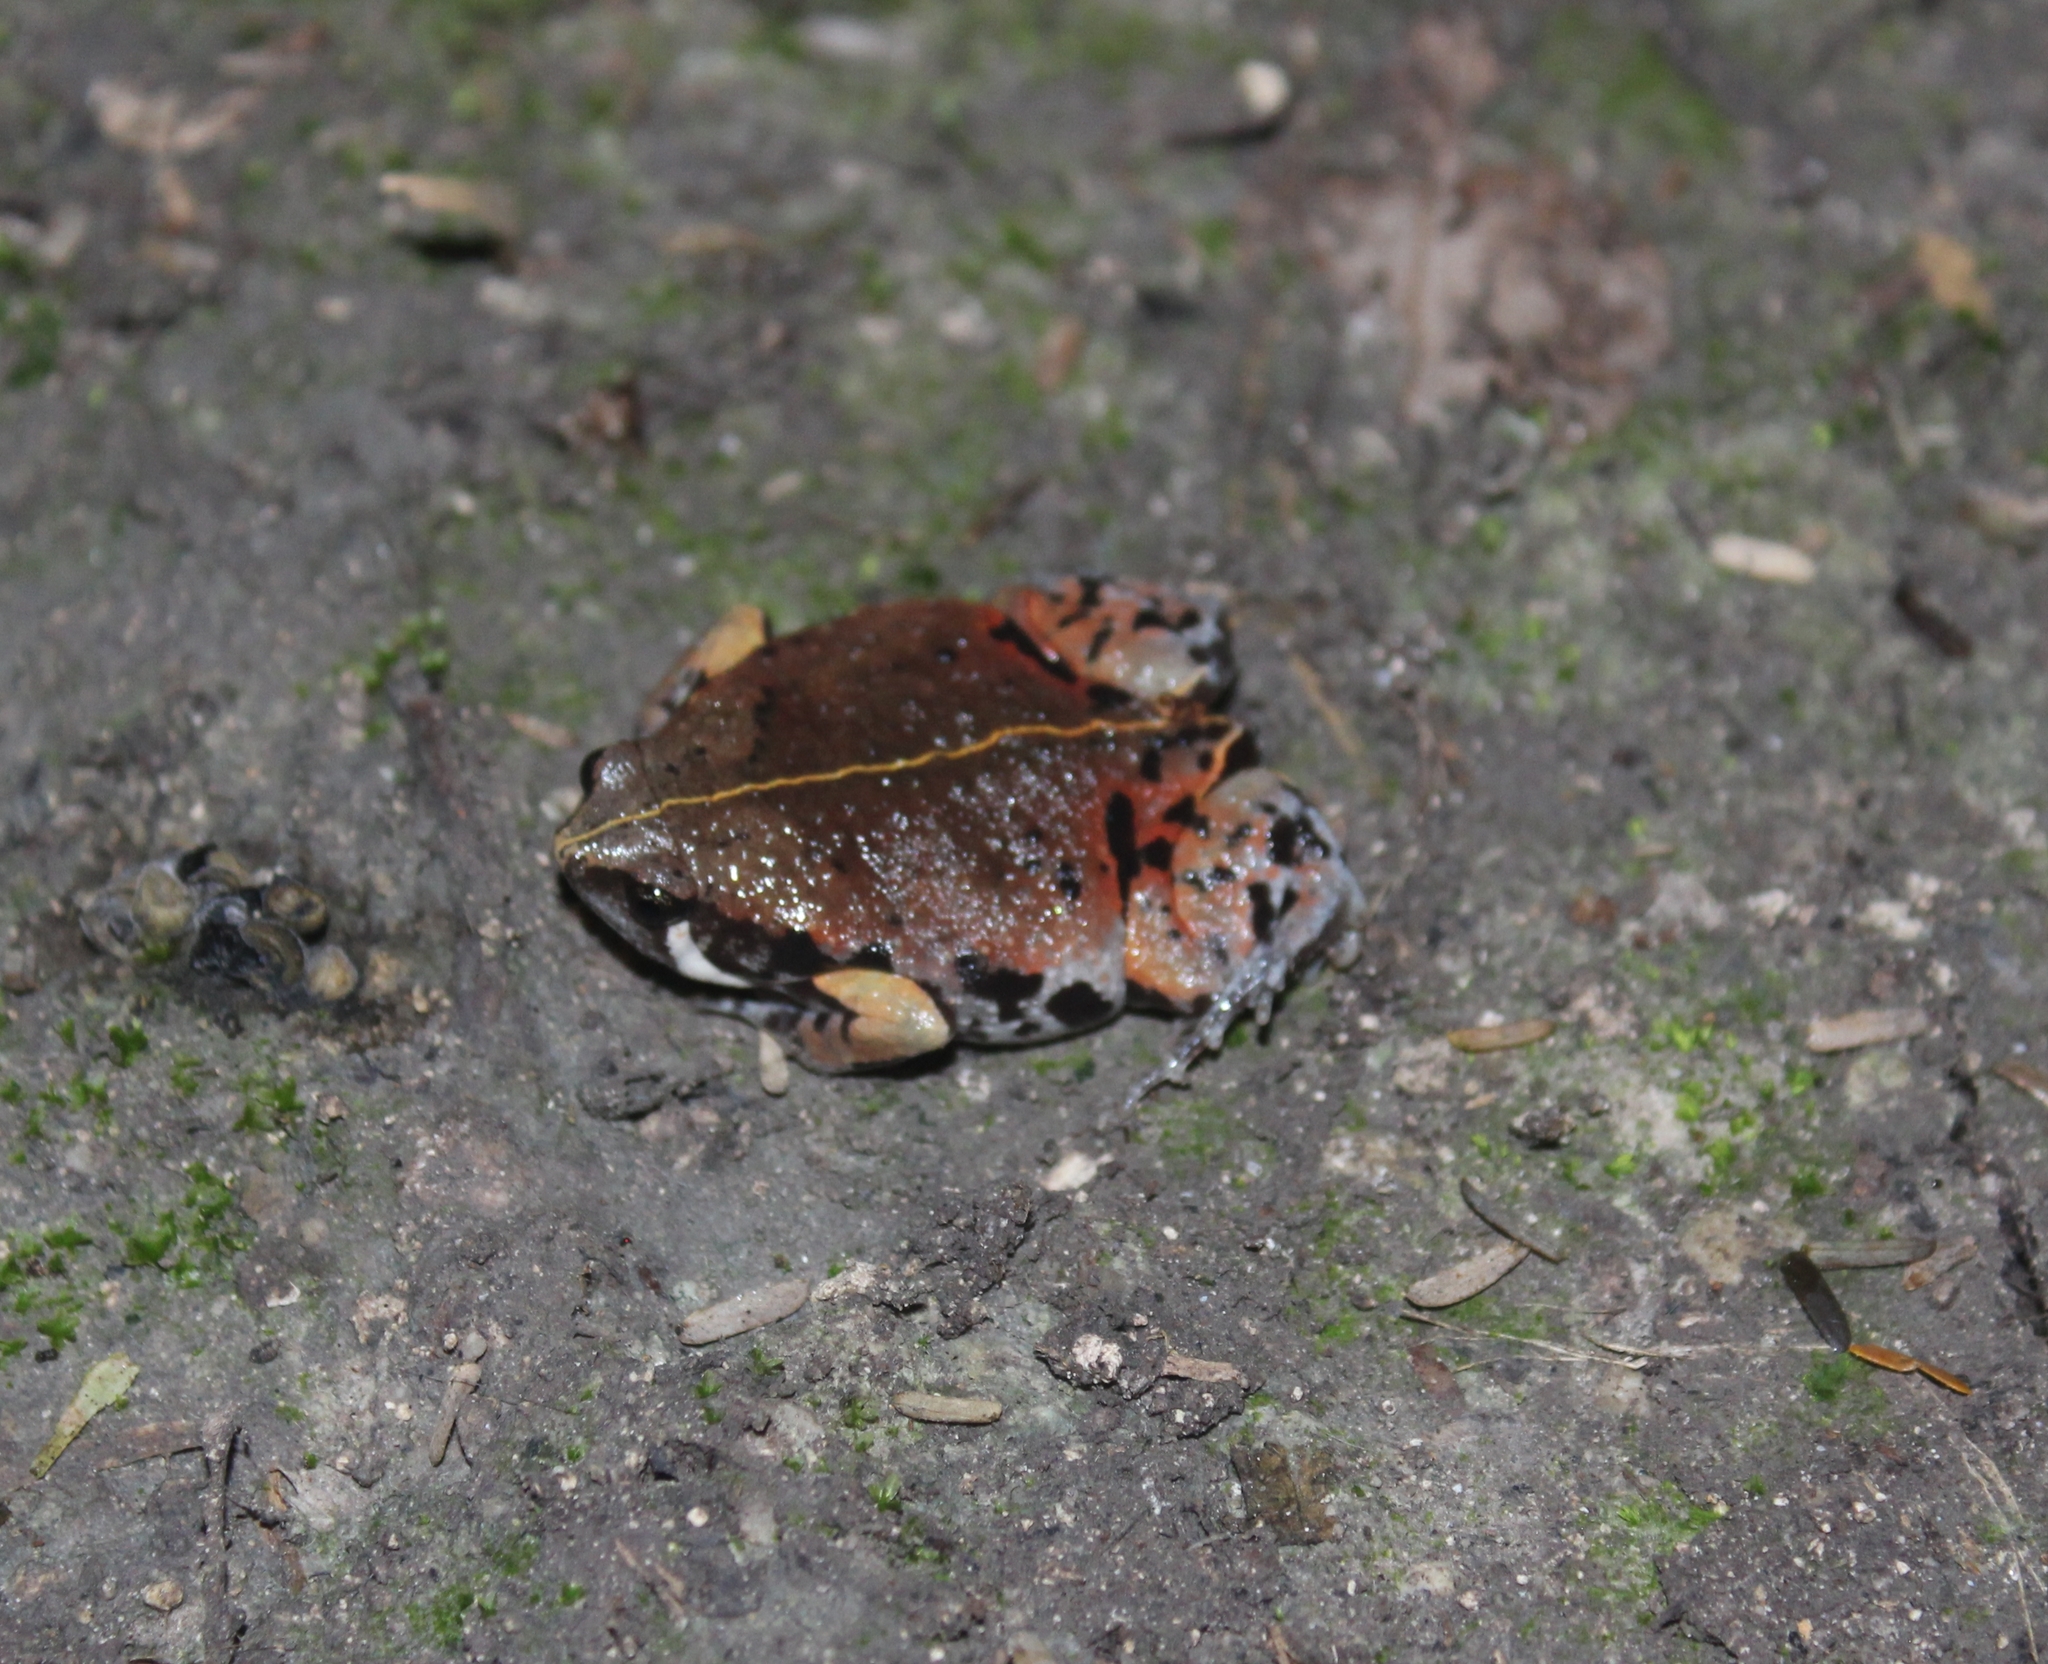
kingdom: Animalia
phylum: Chordata
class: Amphibia
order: Anura
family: Microhylidae
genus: Hypopachus
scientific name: Hypopachus variolosus
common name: Sheep frog
